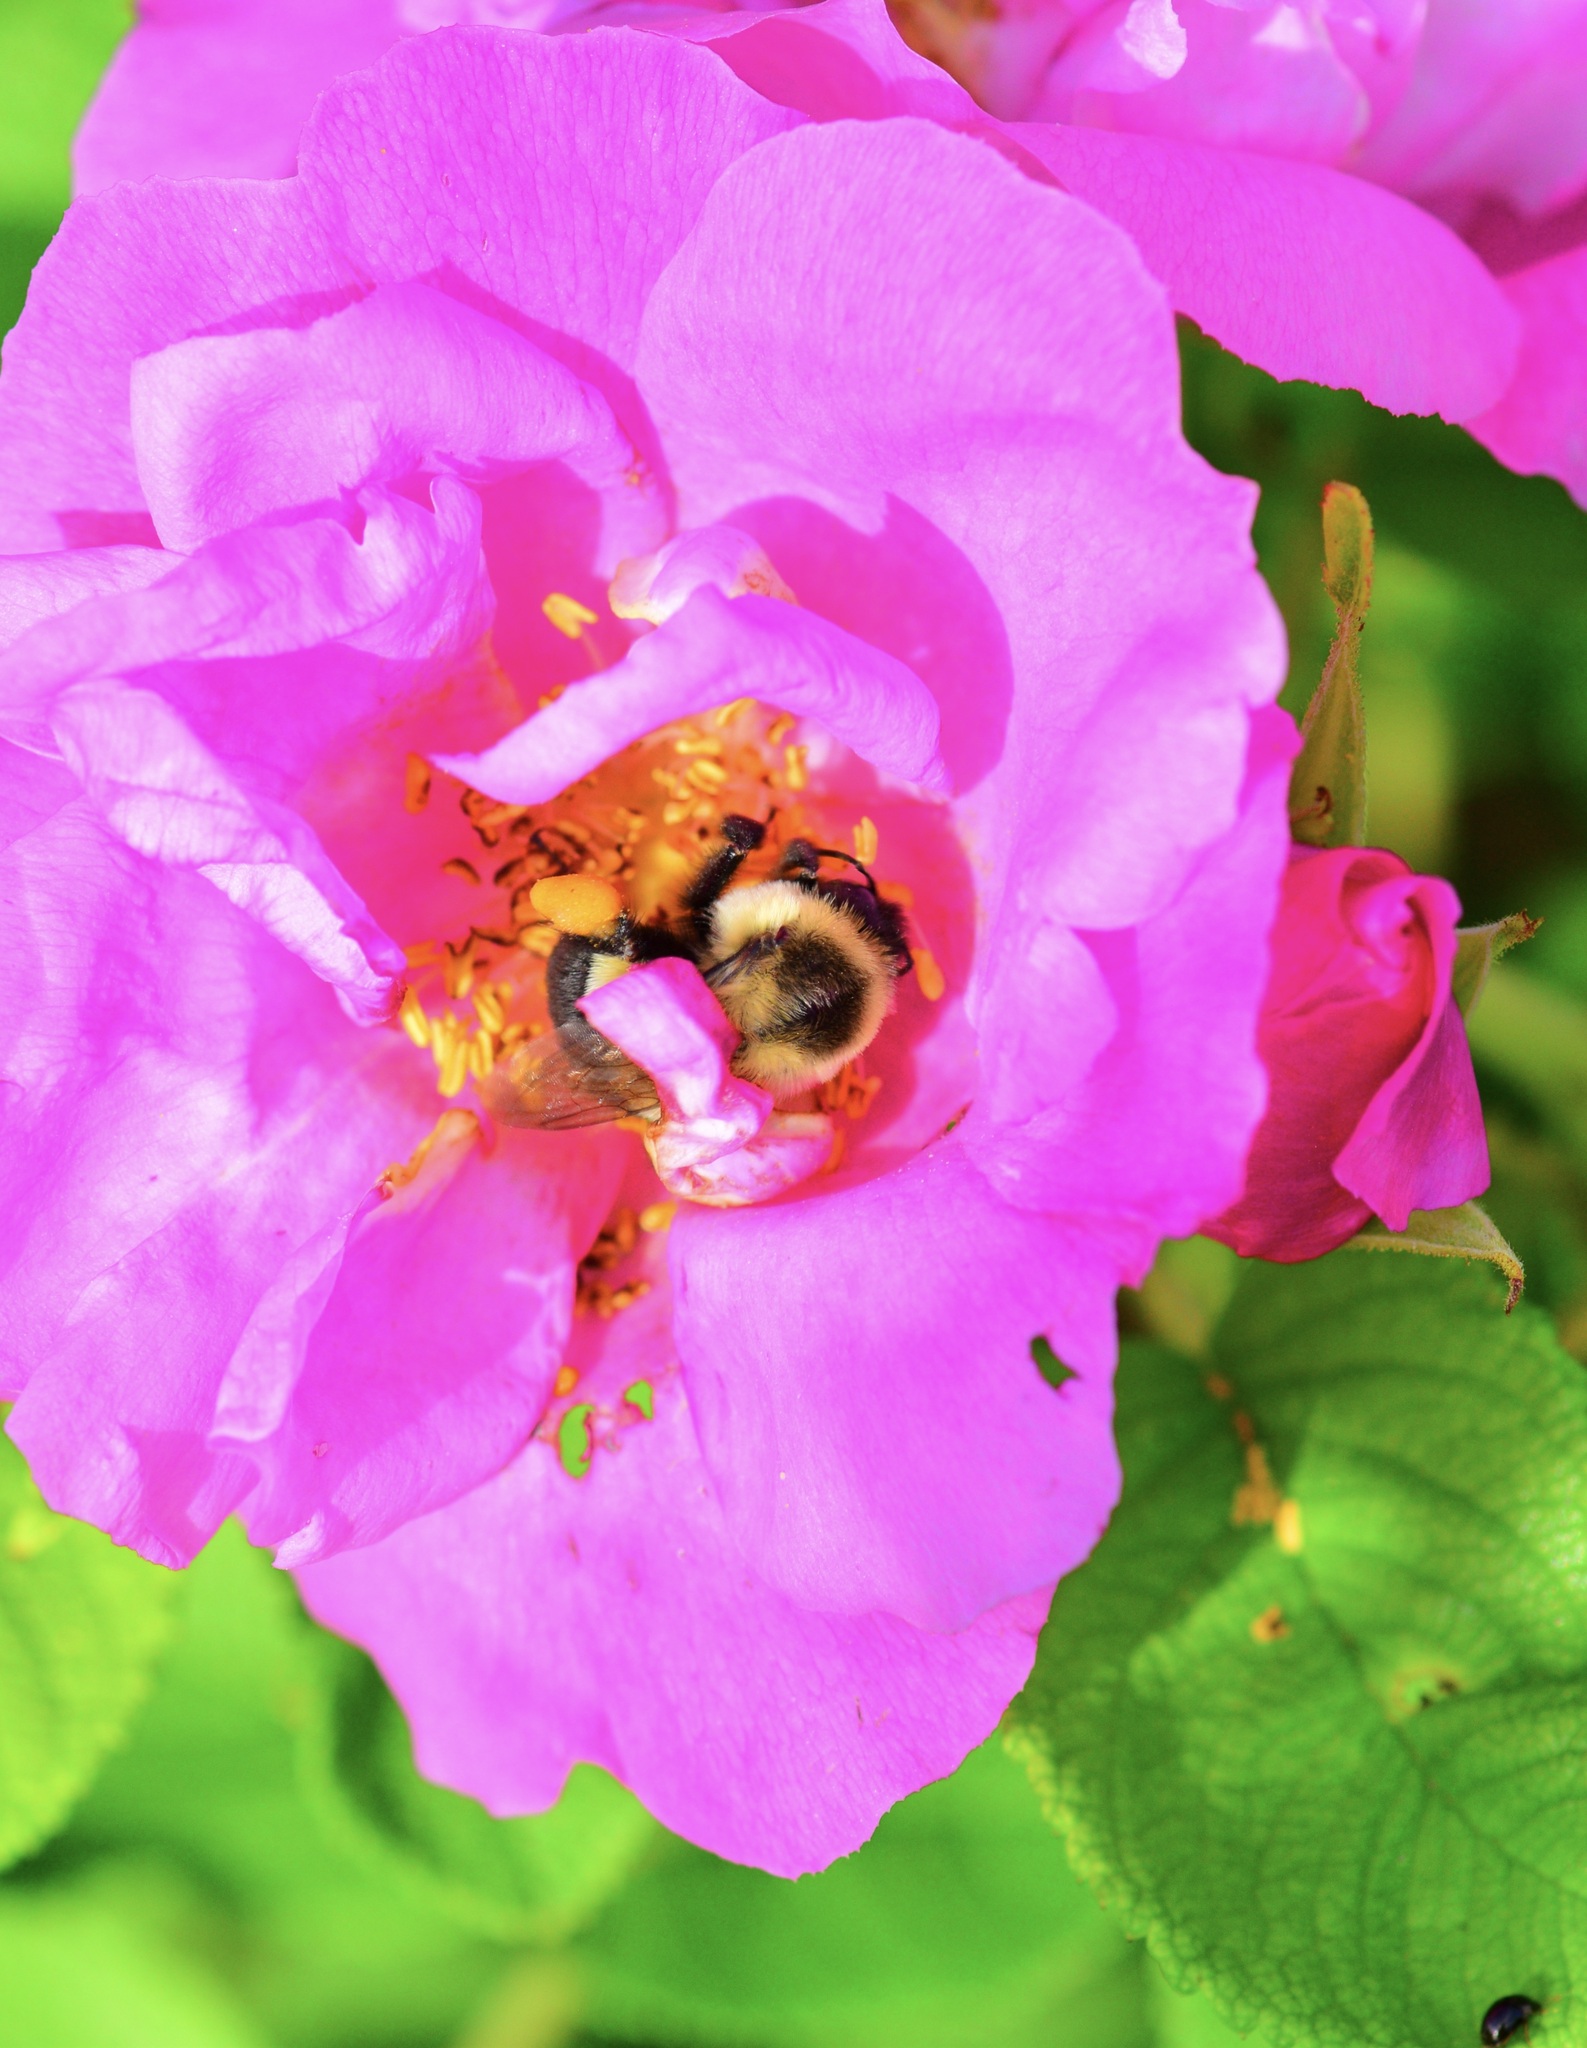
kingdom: Animalia
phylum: Arthropoda
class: Insecta
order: Hymenoptera
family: Apidae
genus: Bombus
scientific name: Bombus impatiens
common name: Common eastern bumble bee
